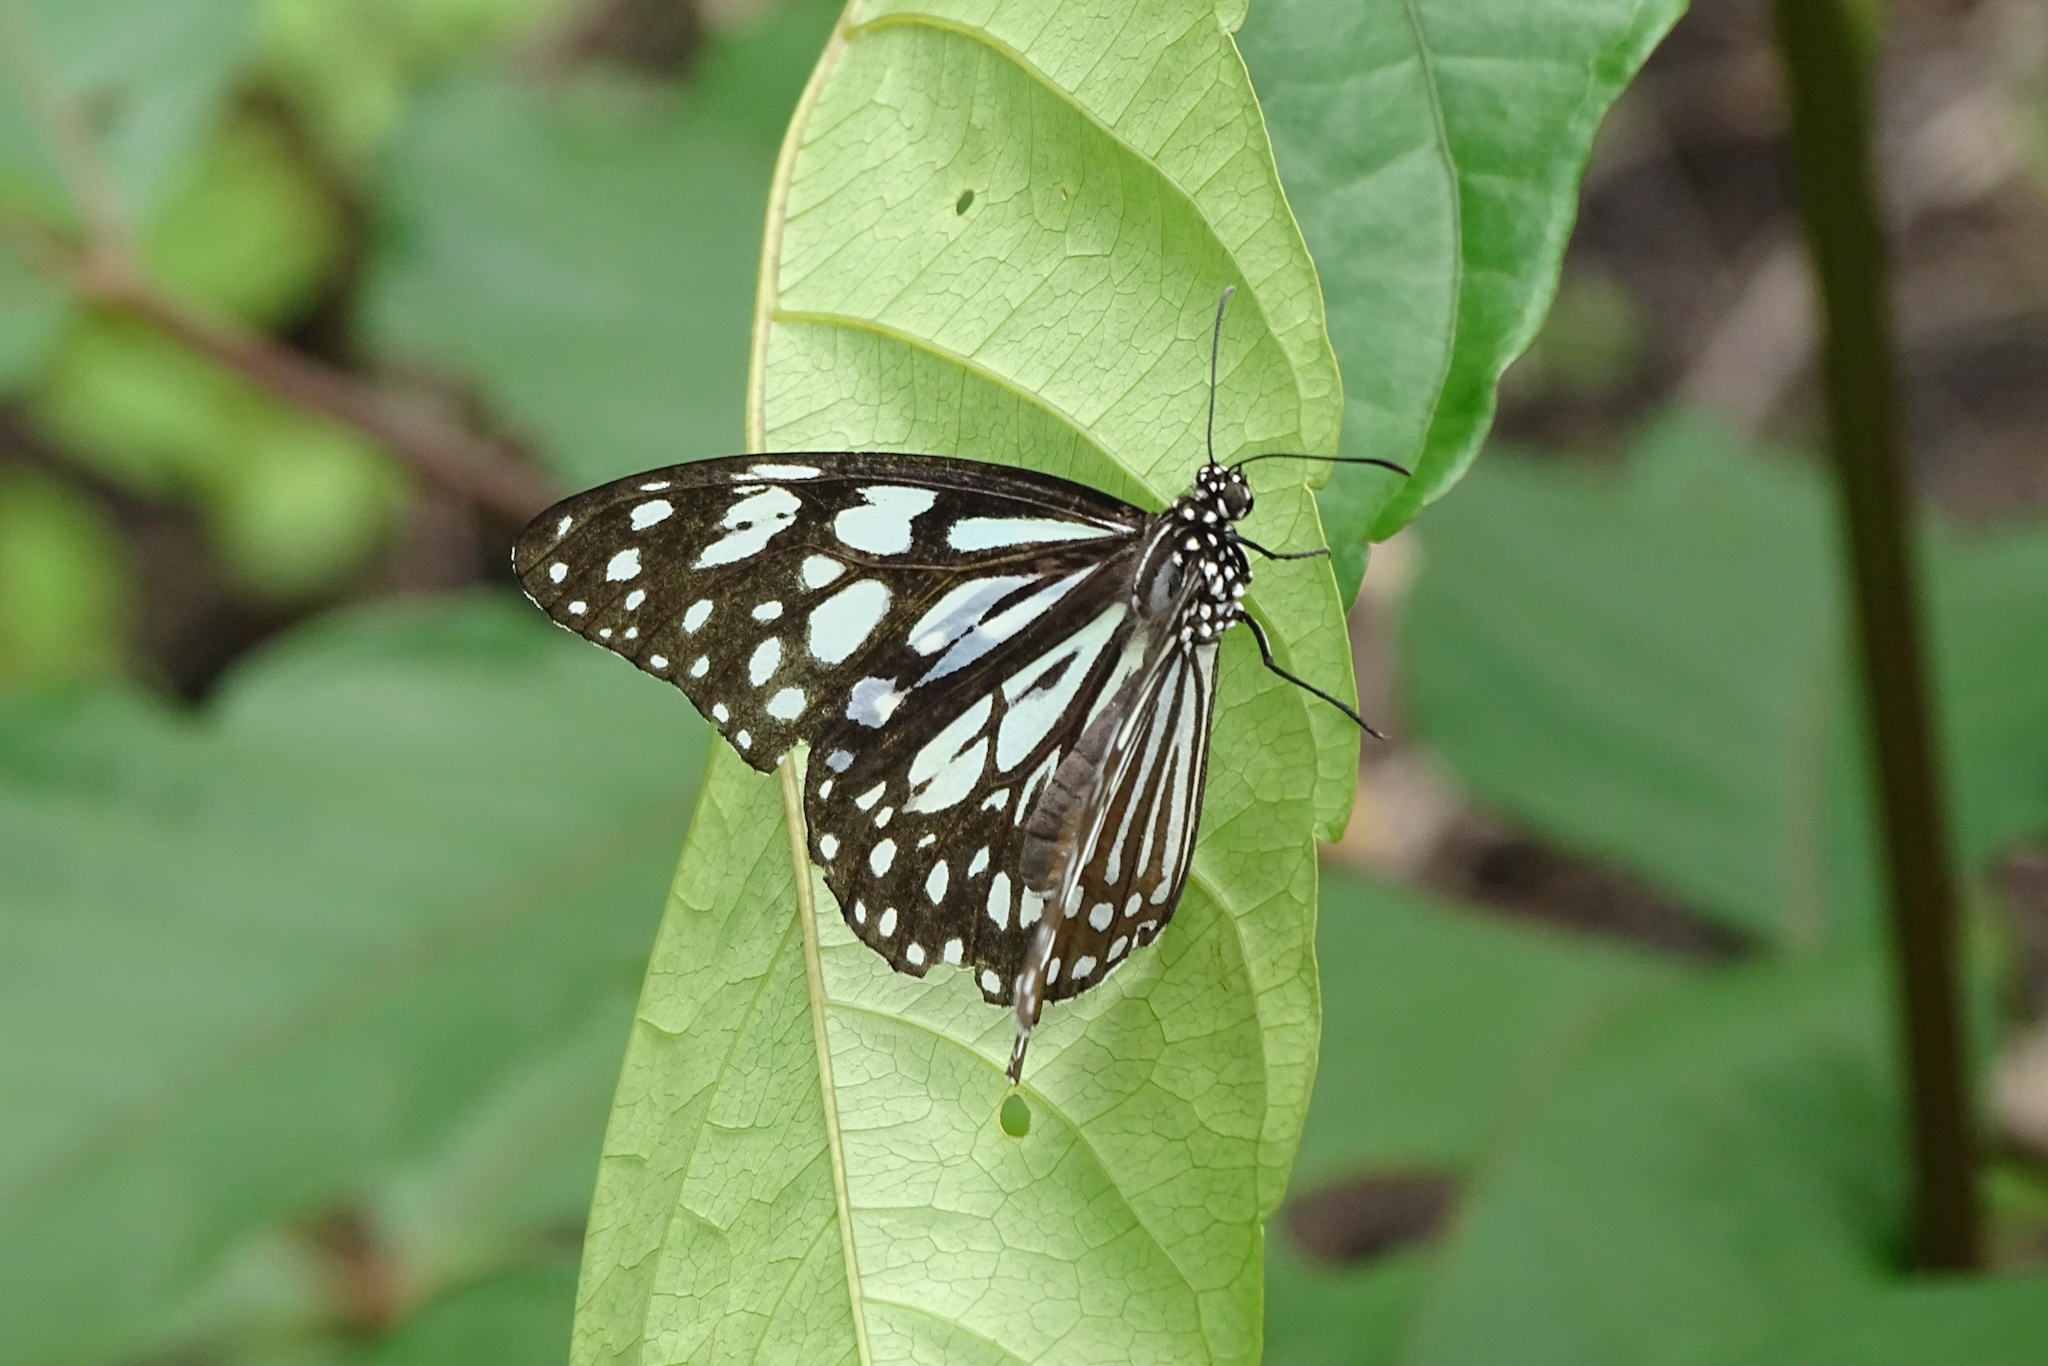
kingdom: Animalia
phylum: Arthropoda
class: Insecta
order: Lepidoptera
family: Nymphalidae
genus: Tirumala
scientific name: Tirumala limniace
